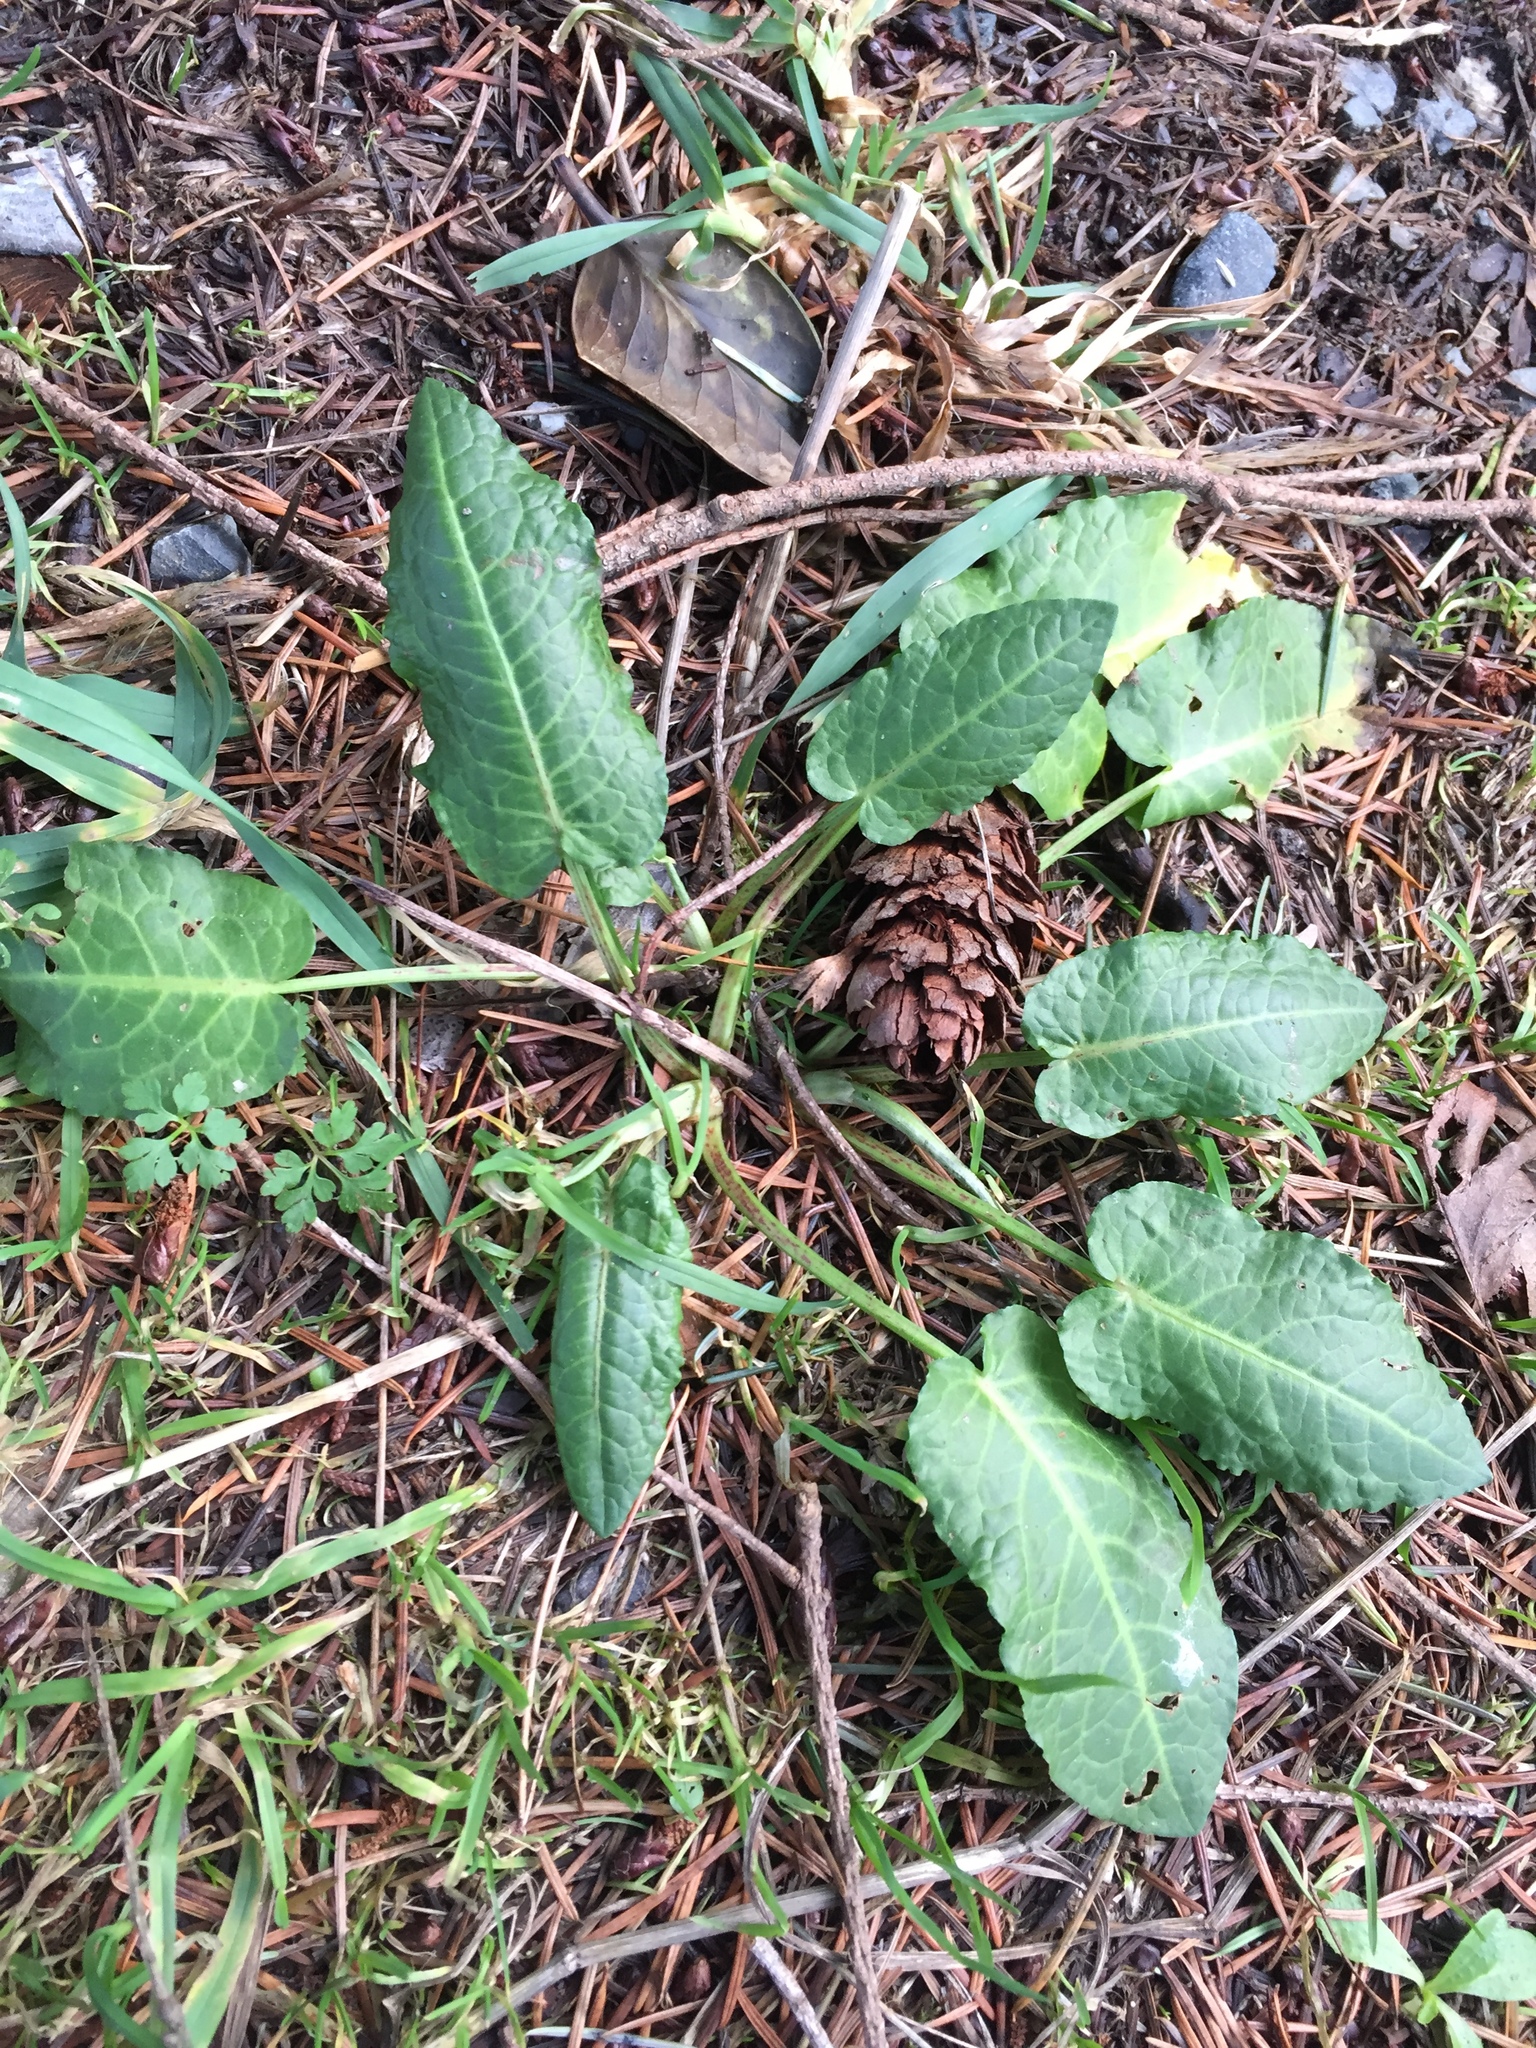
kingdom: Plantae
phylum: Tracheophyta
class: Magnoliopsida
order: Caryophyllales
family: Polygonaceae
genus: Rumex
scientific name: Rumex obtusifolius
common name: Bitter dock
